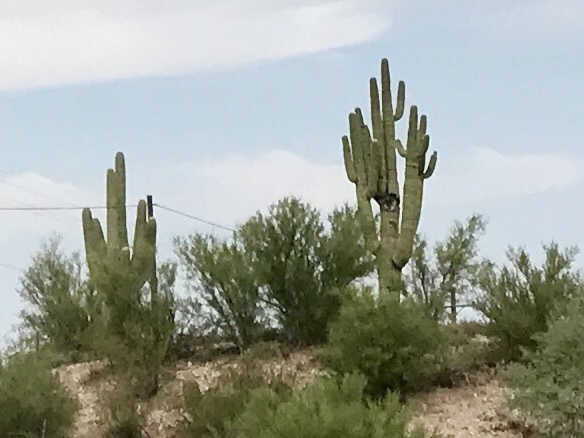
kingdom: Plantae
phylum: Tracheophyta
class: Magnoliopsida
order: Caryophyllales
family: Cactaceae
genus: Carnegiea
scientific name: Carnegiea gigantea
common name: Saguaro
